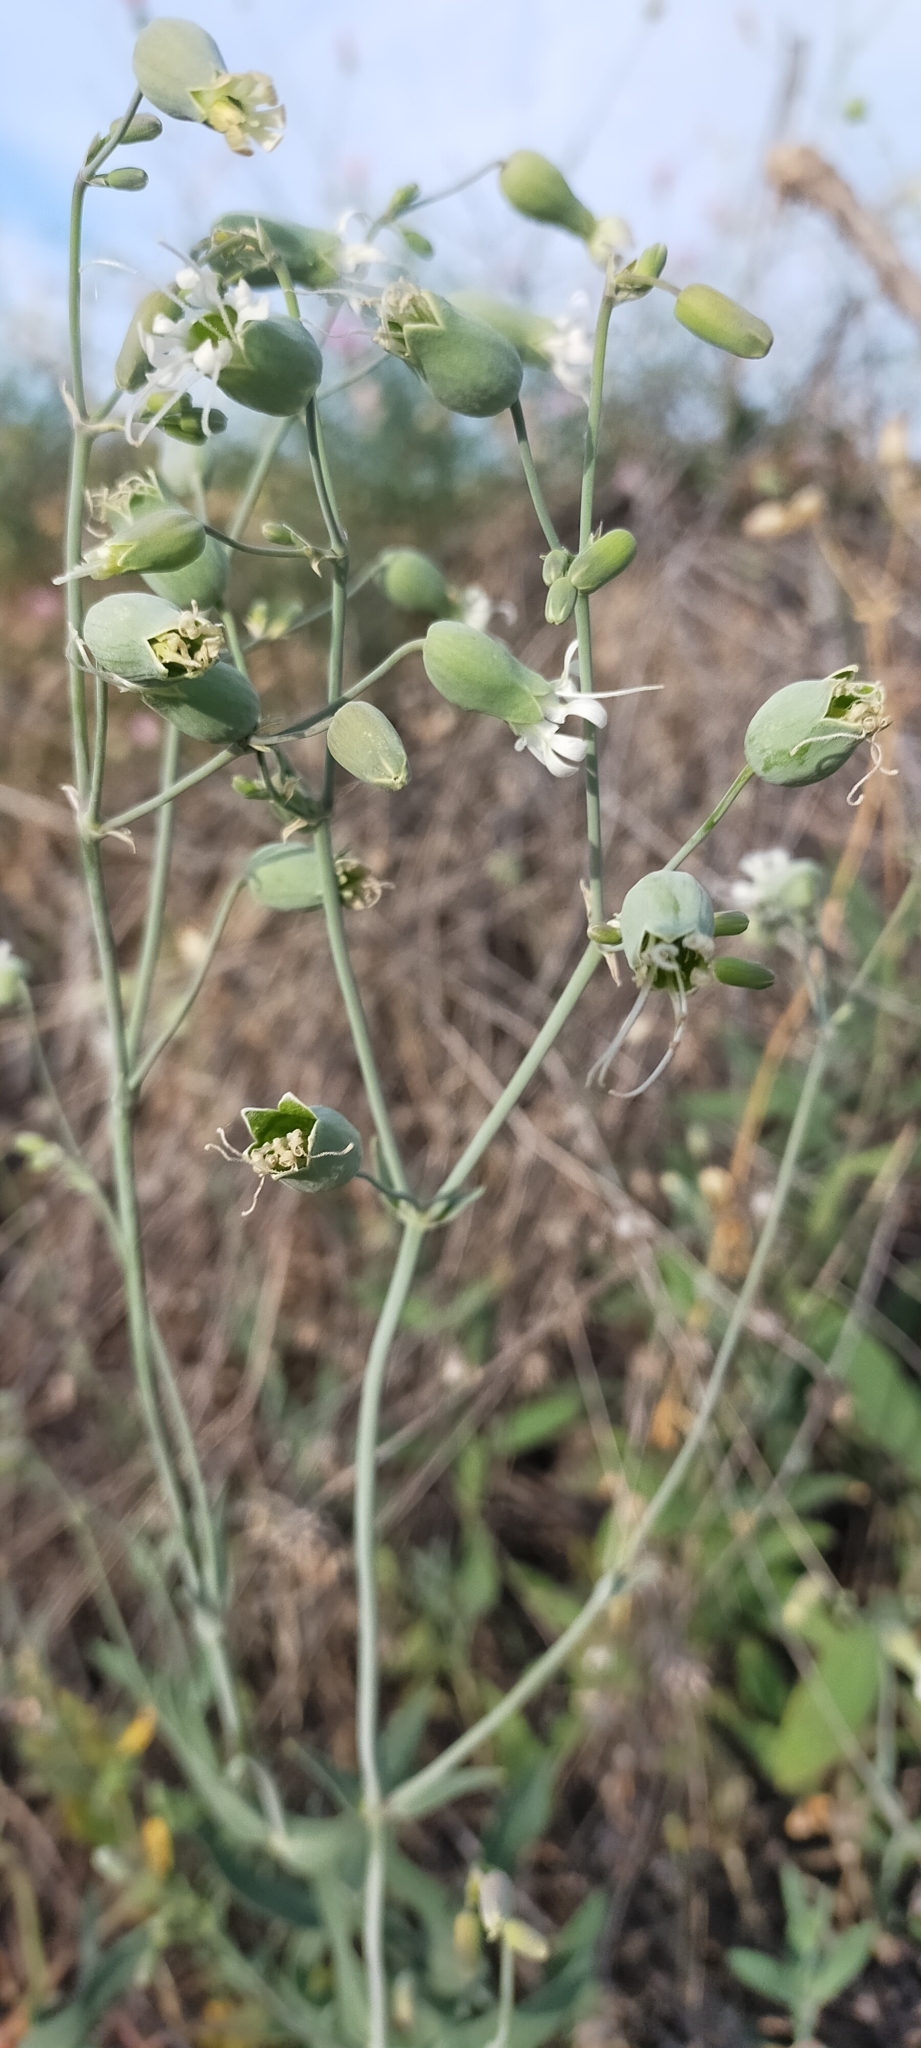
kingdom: Plantae
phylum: Tracheophyta
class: Magnoliopsida
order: Caryophyllales
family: Caryophyllaceae
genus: Silene
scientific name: Silene vulgaris
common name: Bladder campion
